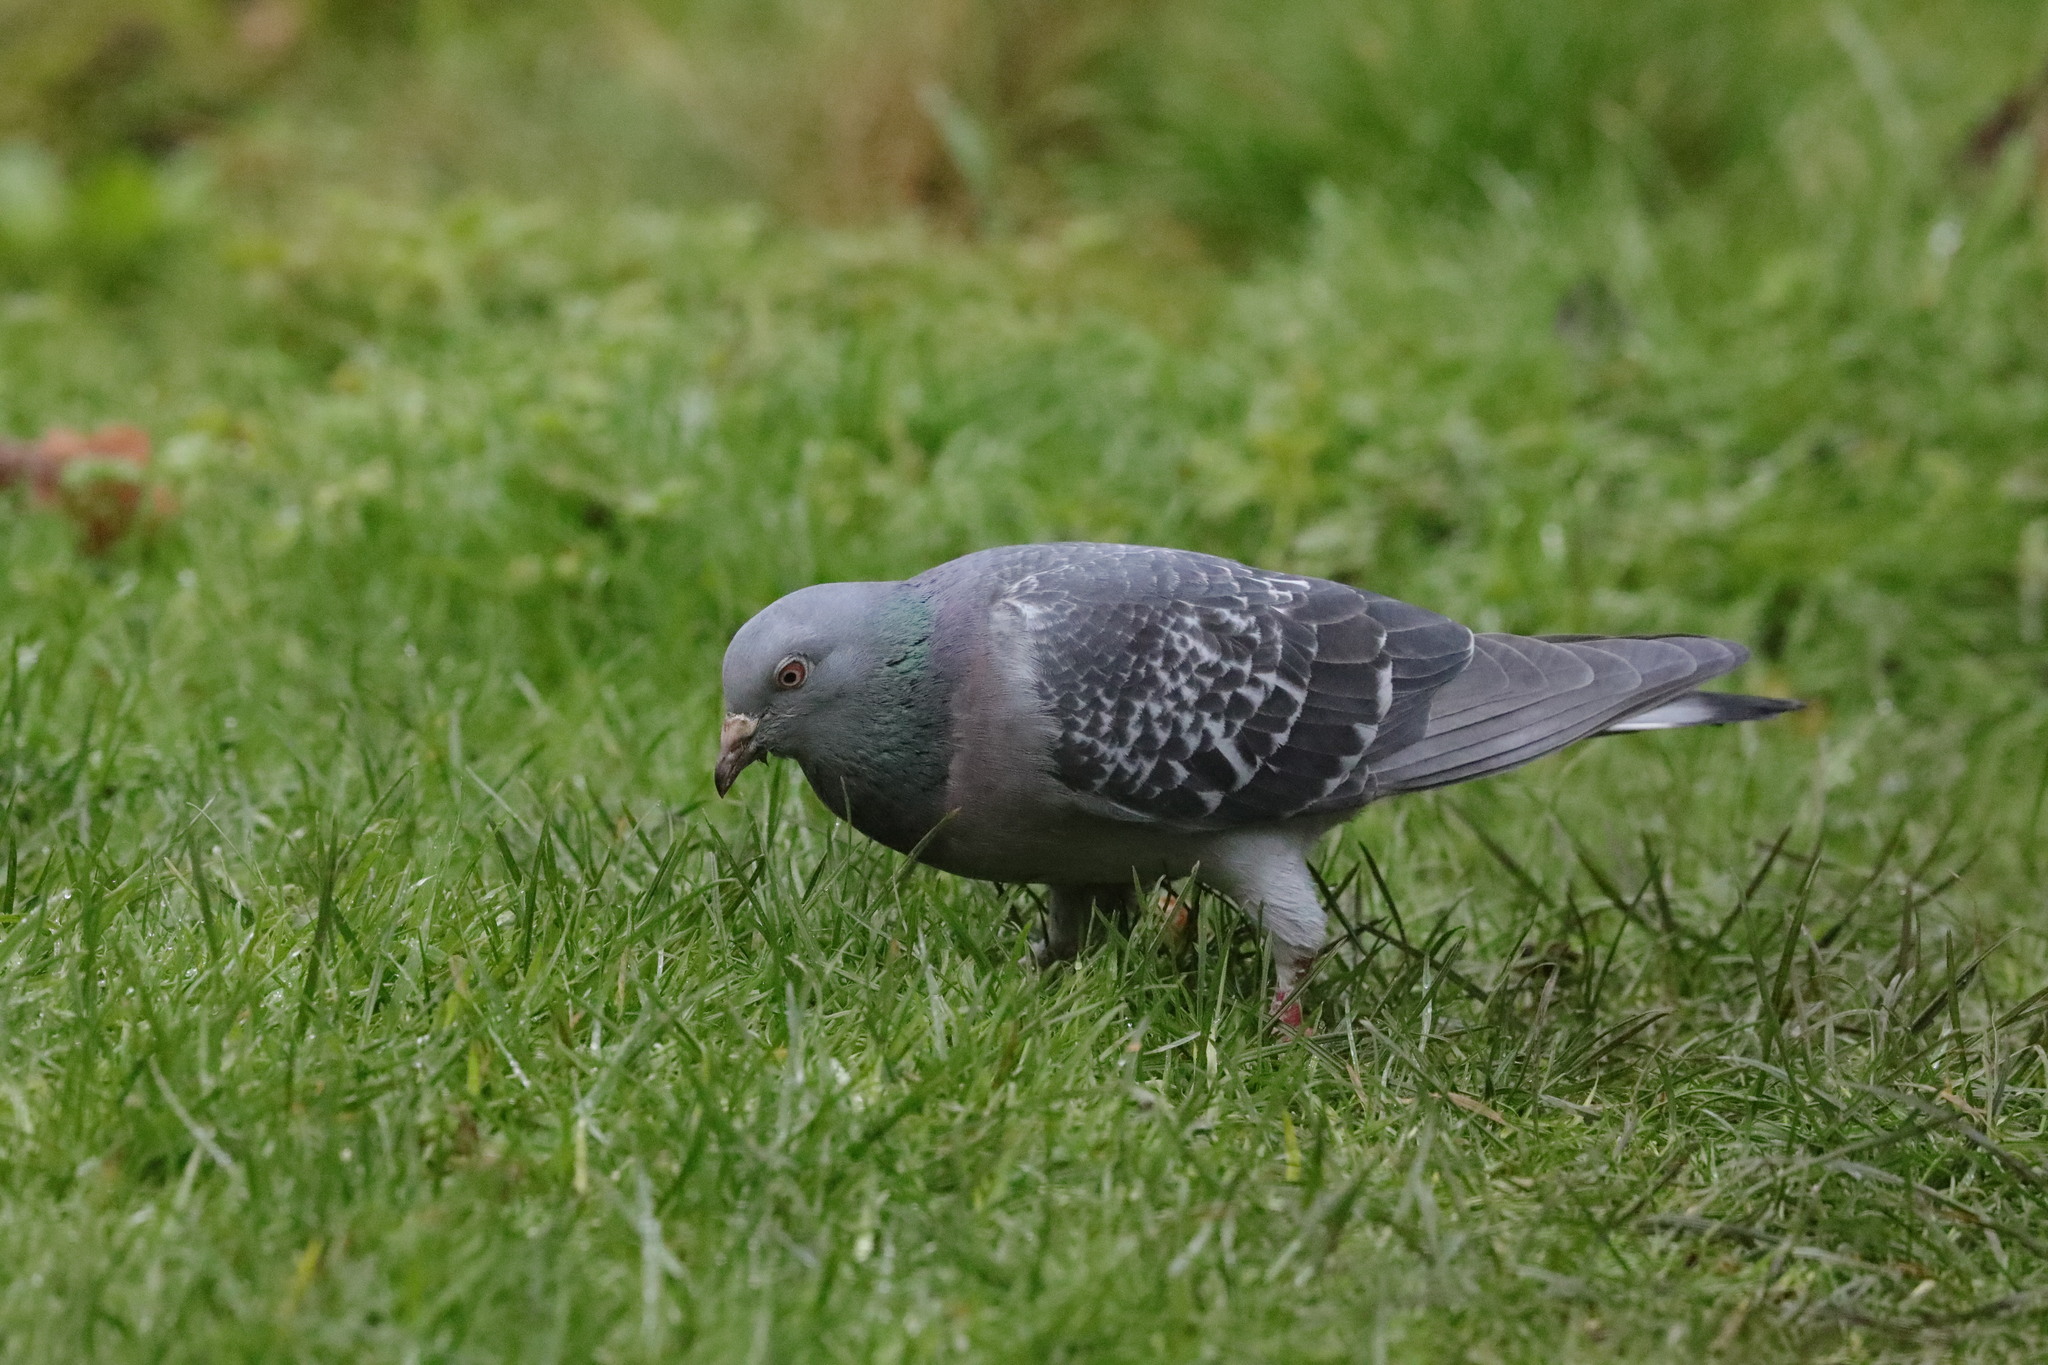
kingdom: Animalia
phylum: Chordata
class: Aves
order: Columbiformes
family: Columbidae
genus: Columba
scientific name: Columba livia
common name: Rock pigeon
